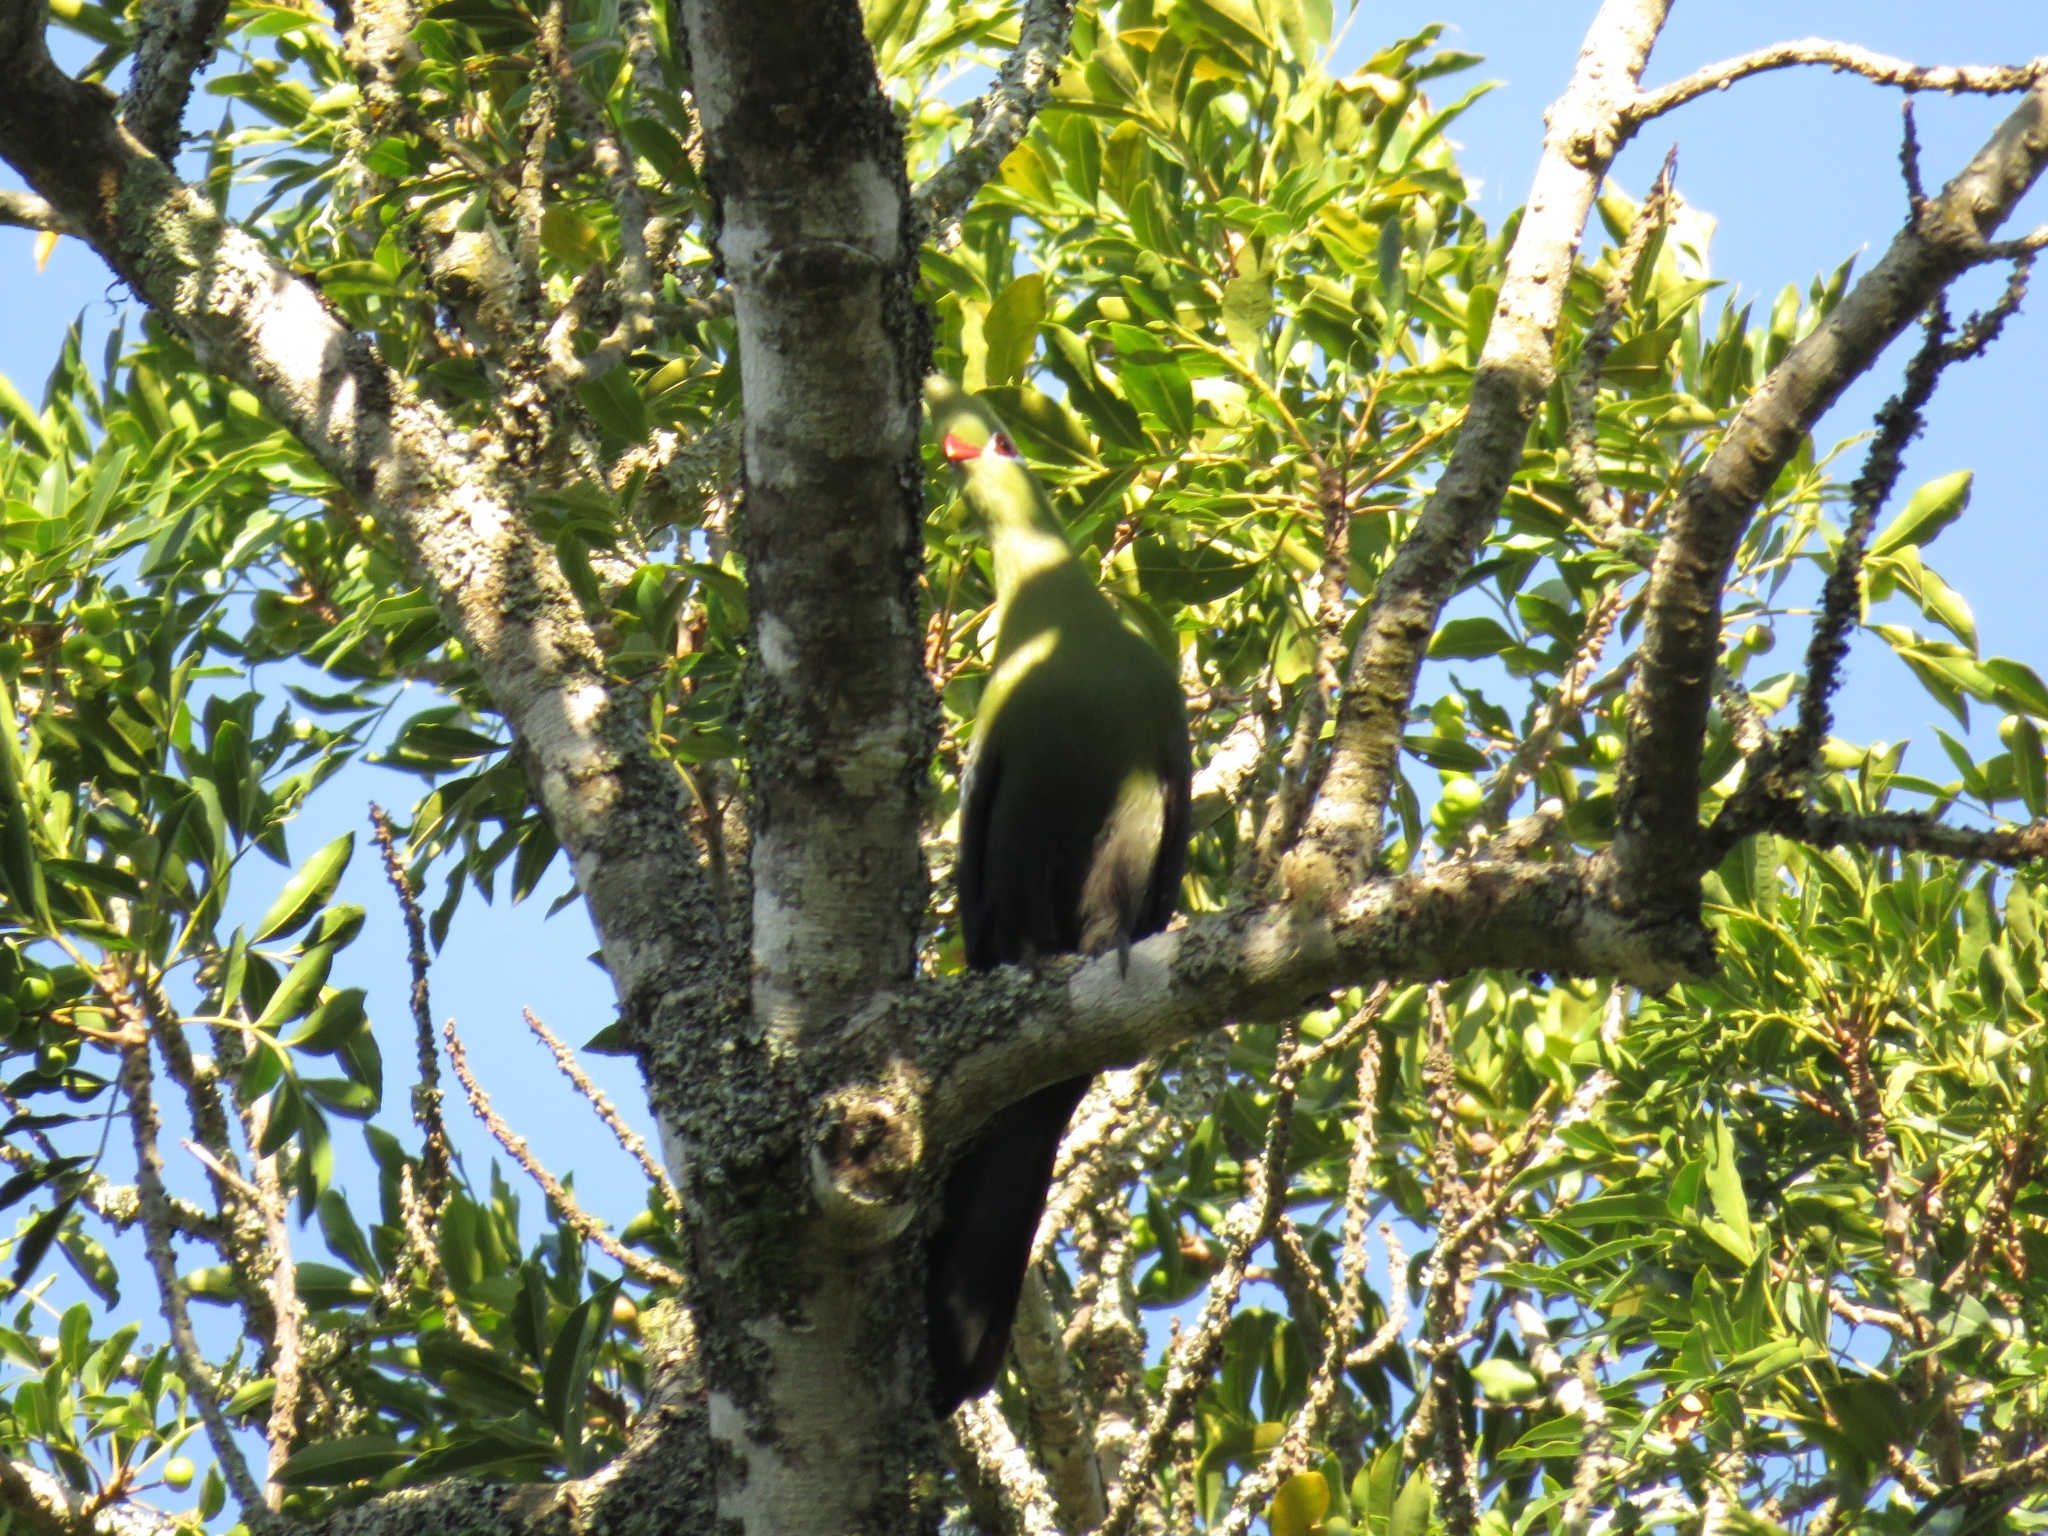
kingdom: Animalia
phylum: Chordata
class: Aves
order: Musophagiformes
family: Musophagidae
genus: Tauraco
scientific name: Tauraco corythaix
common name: Knysna turaco
